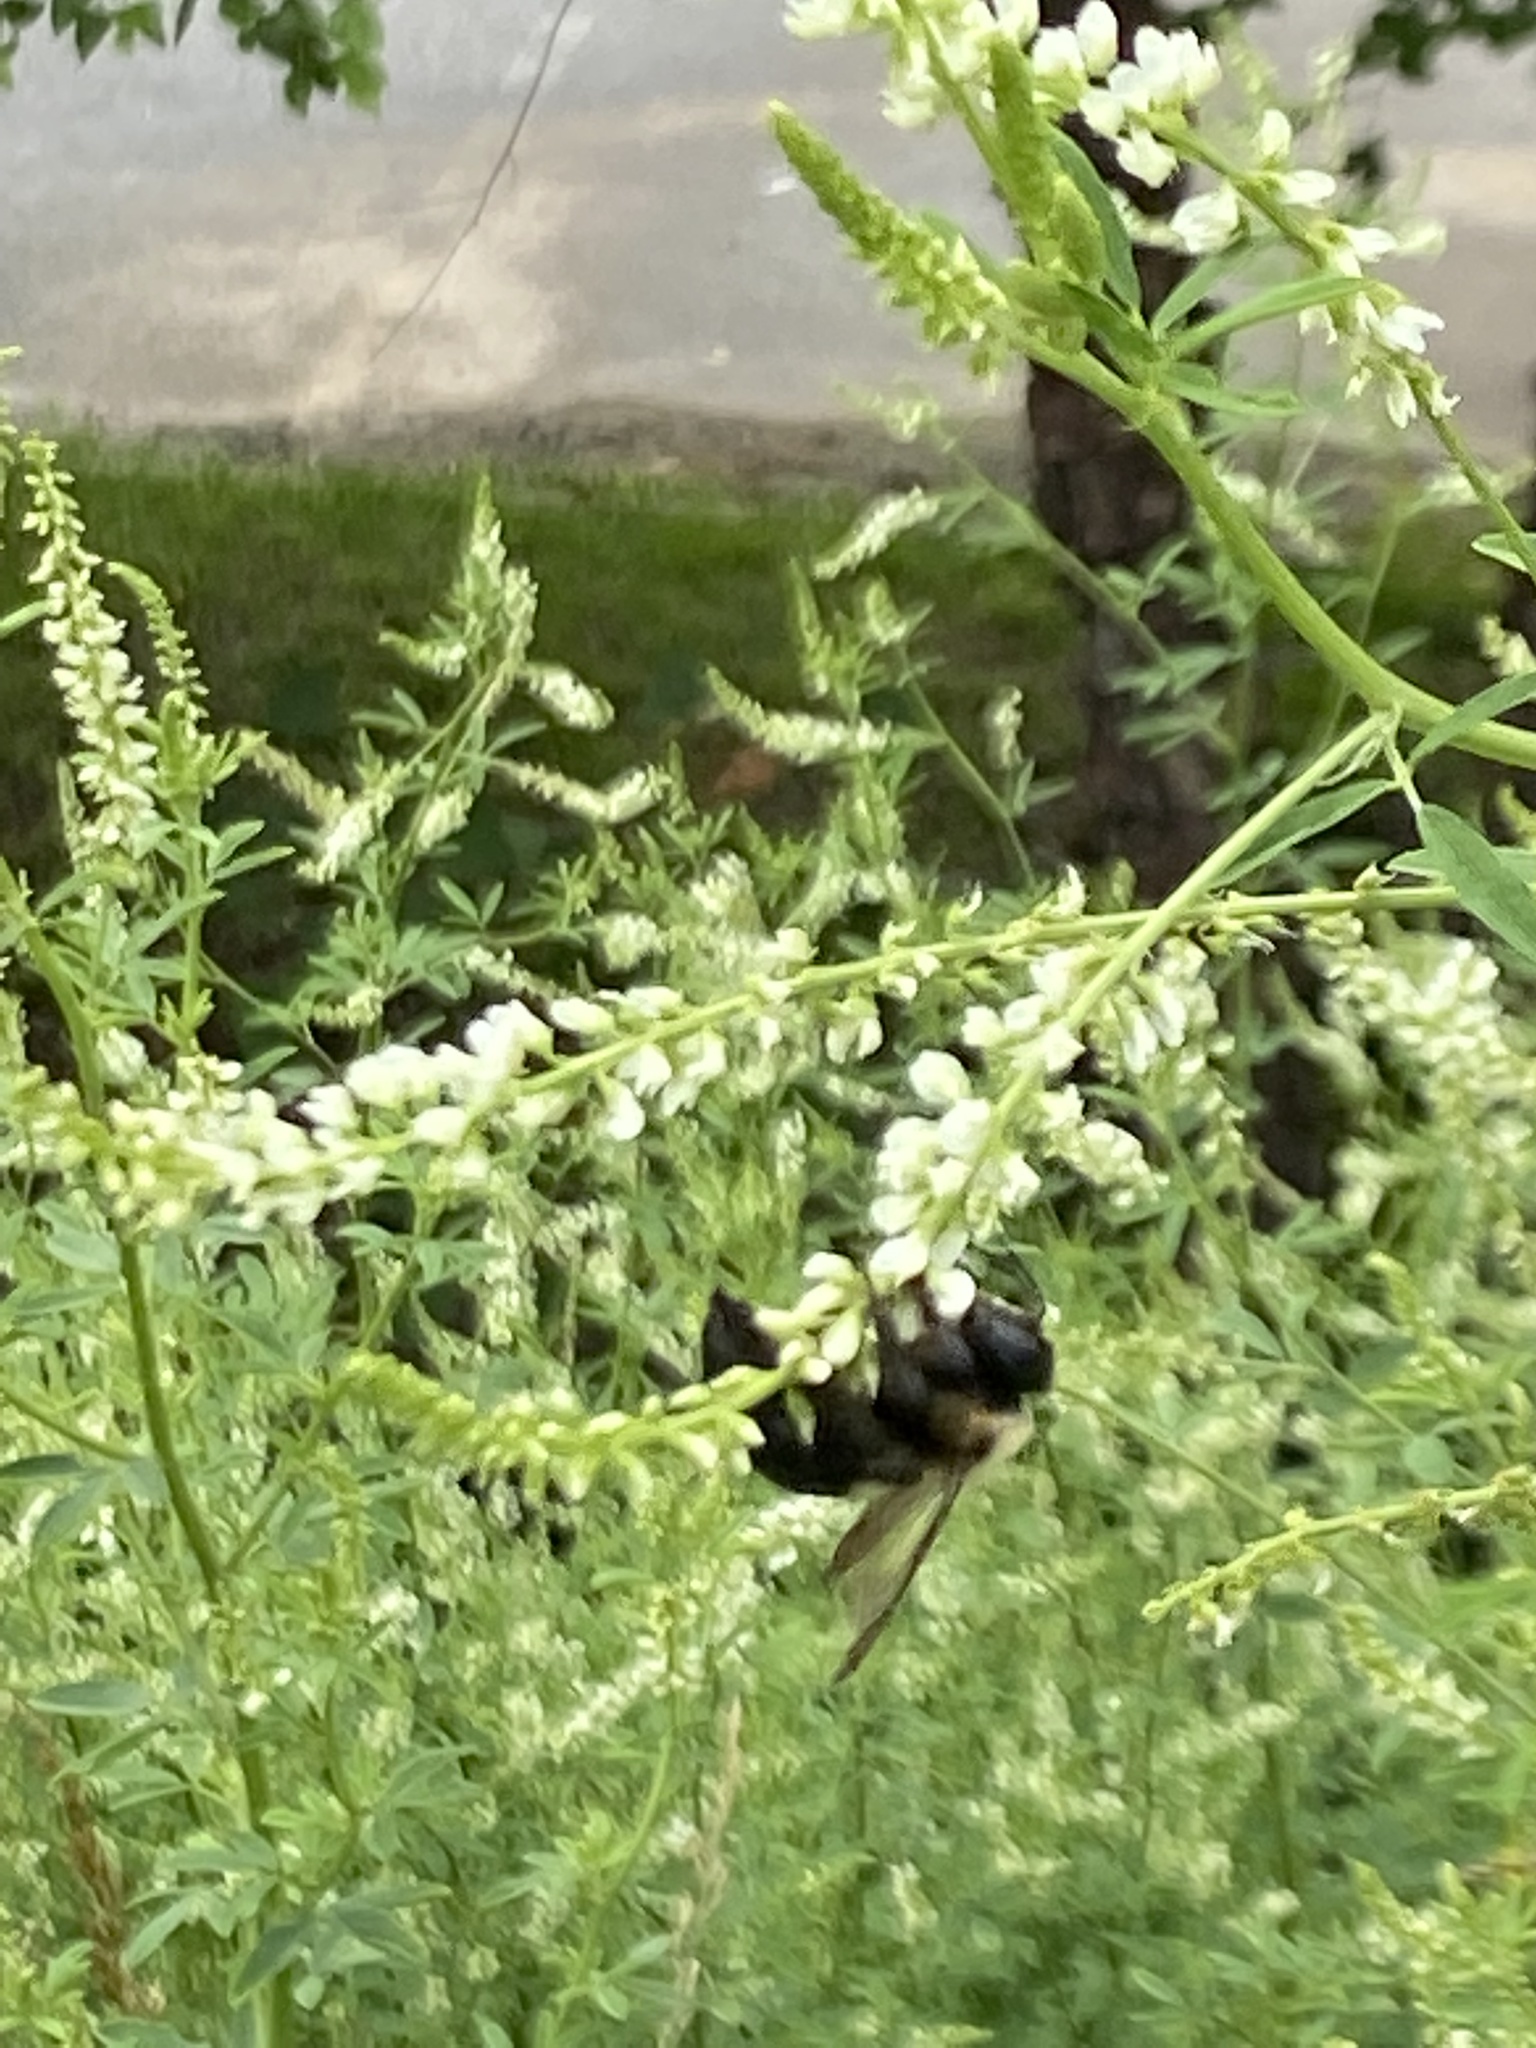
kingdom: Animalia
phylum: Arthropoda
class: Insecta
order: Hymenoptera
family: Apidae
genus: Xylocopa
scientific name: Xylocopa virginica
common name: Carpenter bee
